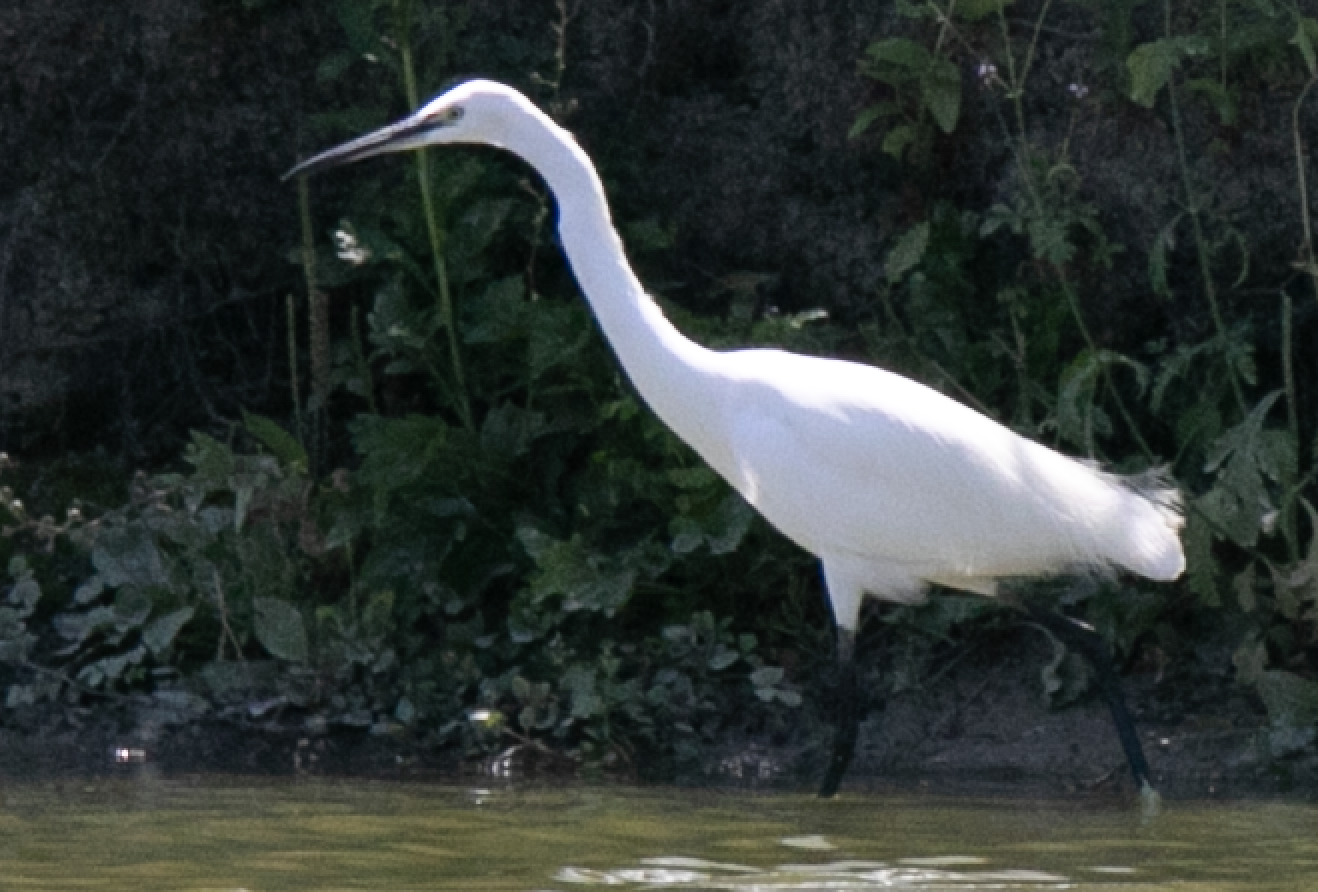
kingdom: Animalia
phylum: Chordata
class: Aves
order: Pelecaniformes
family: Ardeidae
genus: Egretta
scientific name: Egretta garzetta
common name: Little egret
